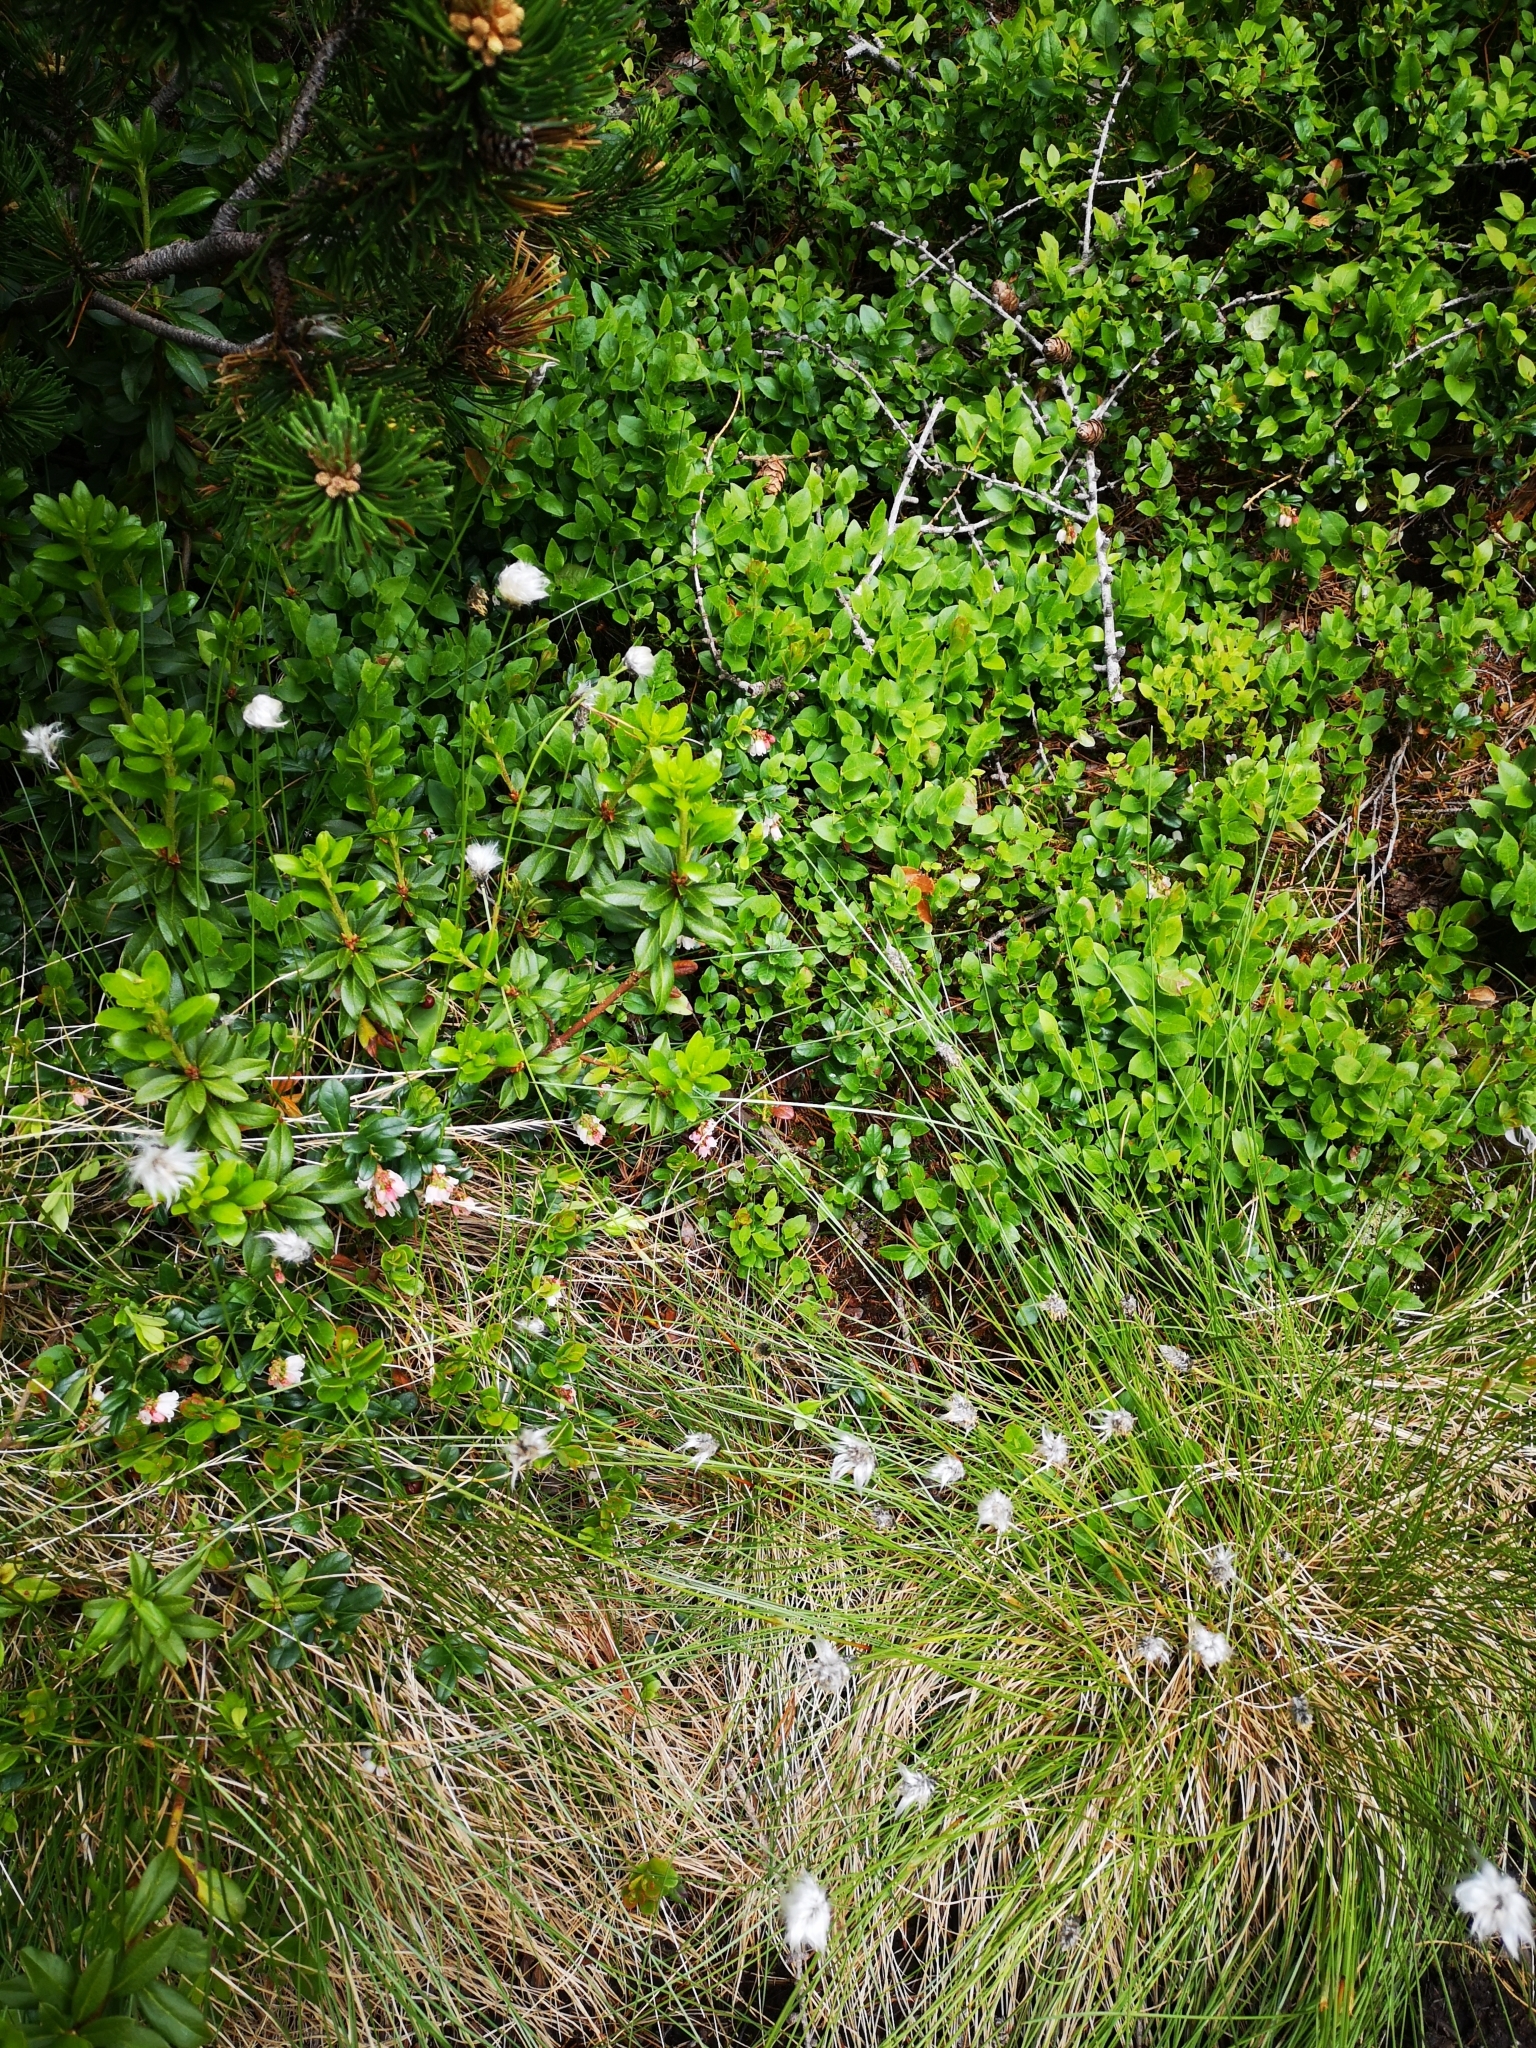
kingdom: Plantae
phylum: Tracheophyta
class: Liliopsida
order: Poales
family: Cyperaceae
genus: Eriophorum
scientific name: Eriophorum vaginatum
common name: Hare's-tail cottongrass
